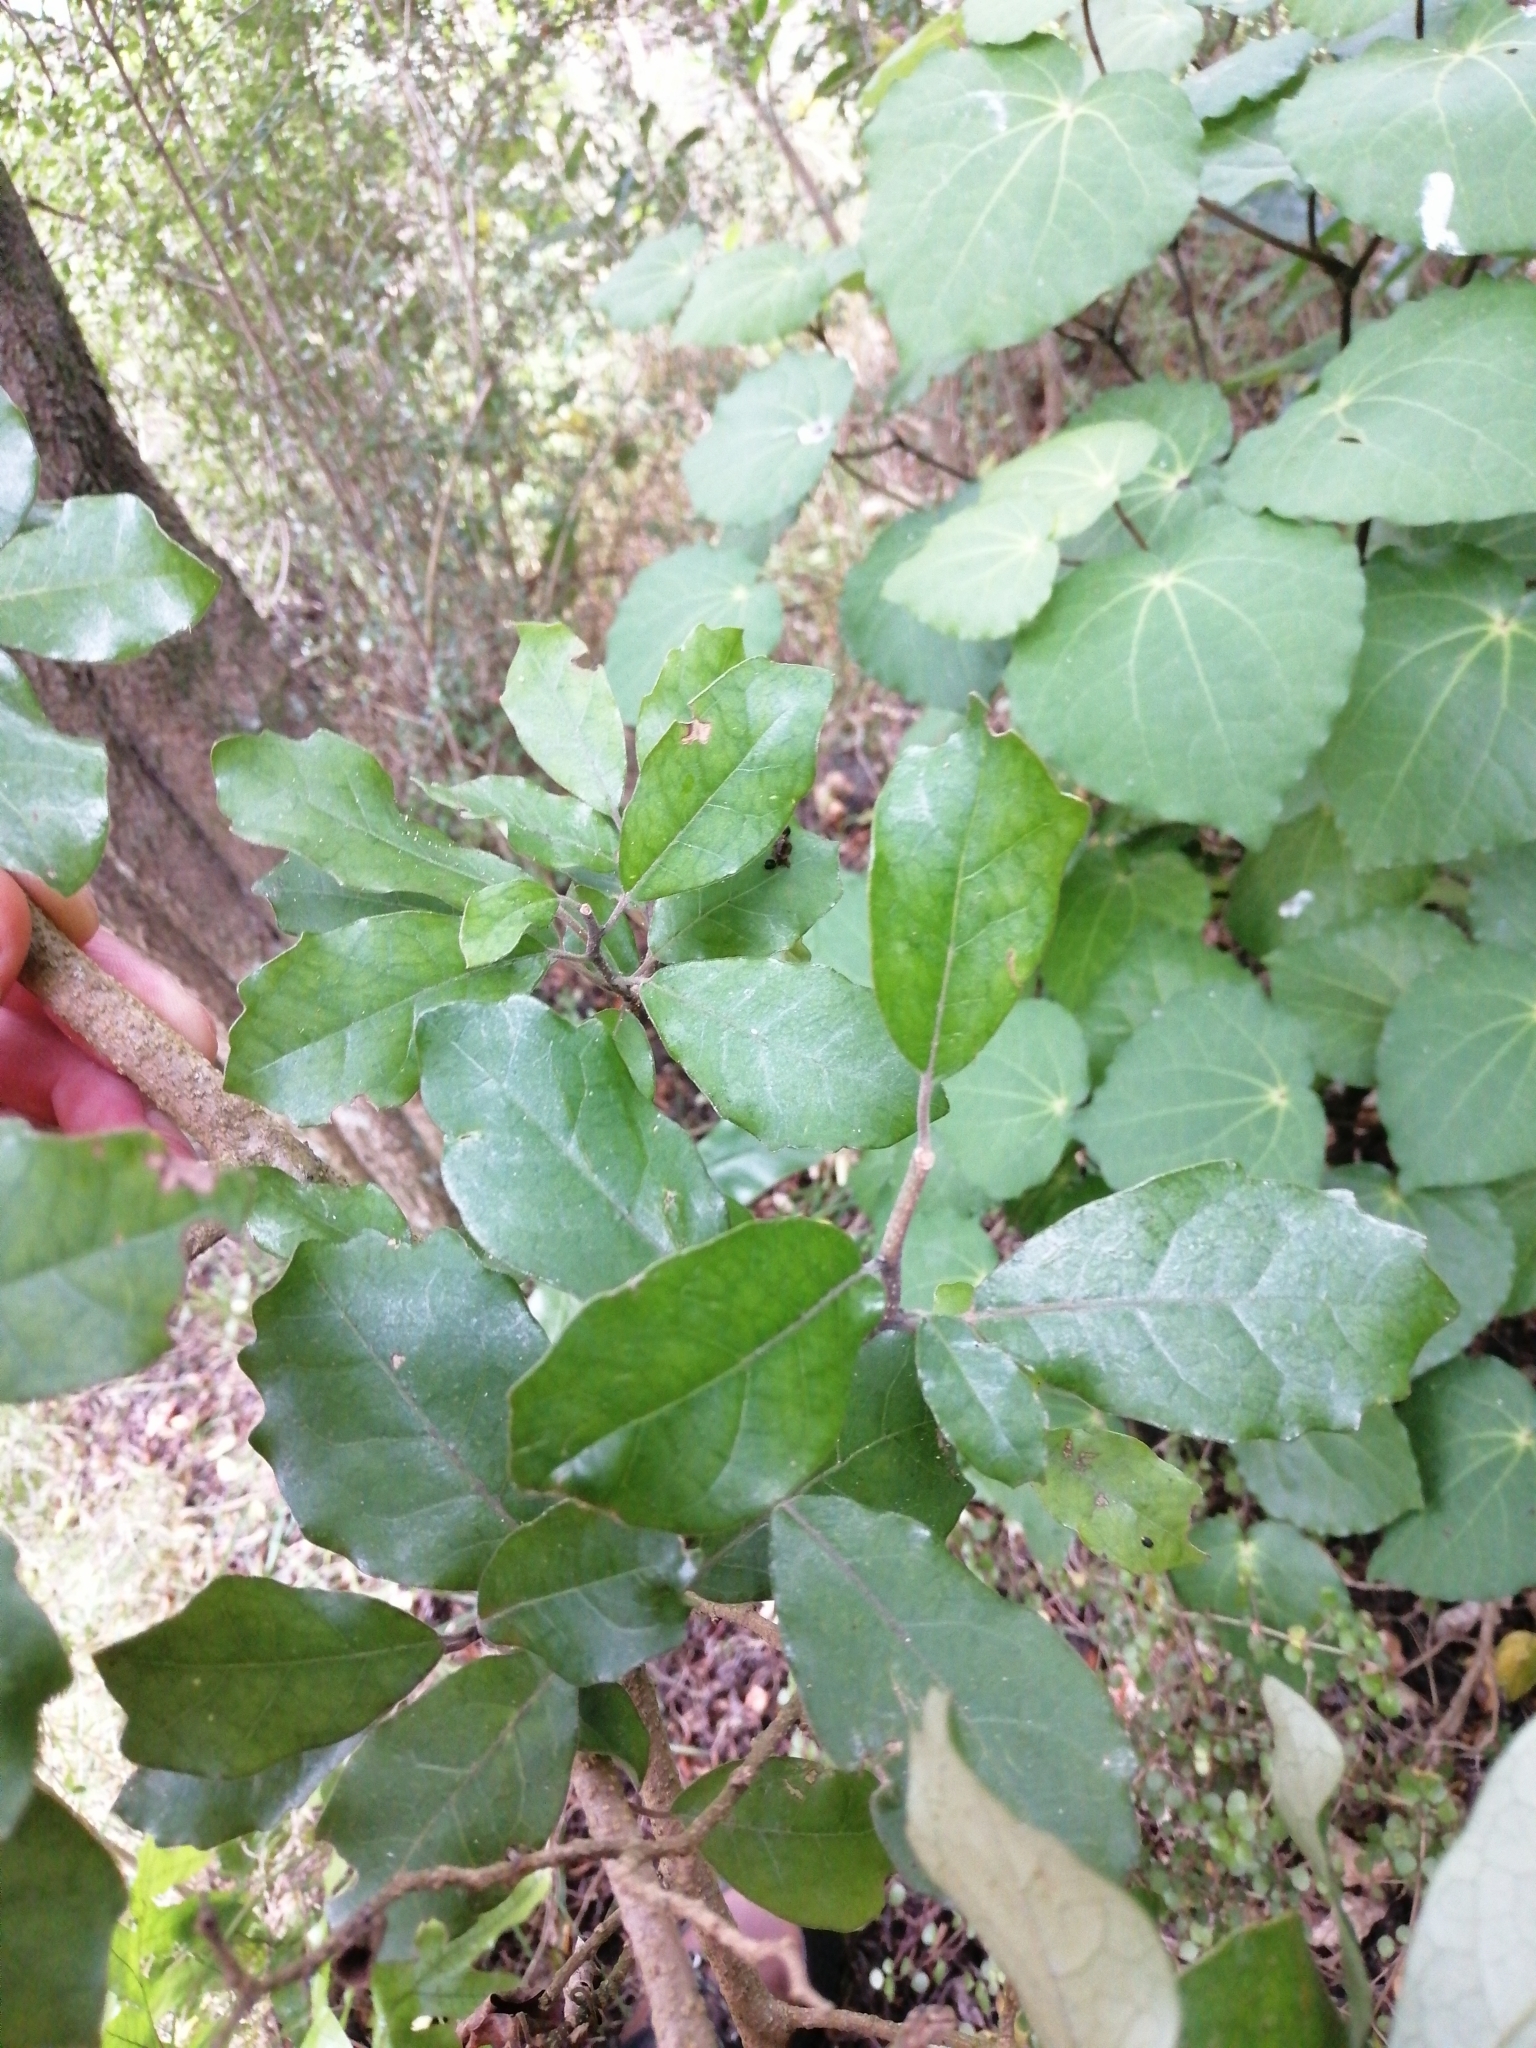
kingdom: Plantae
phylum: Tracheophyta
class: Magnoliopsida
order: Apiales
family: Pennantiaceae
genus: Pennantia
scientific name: Pennantia corymbosa
